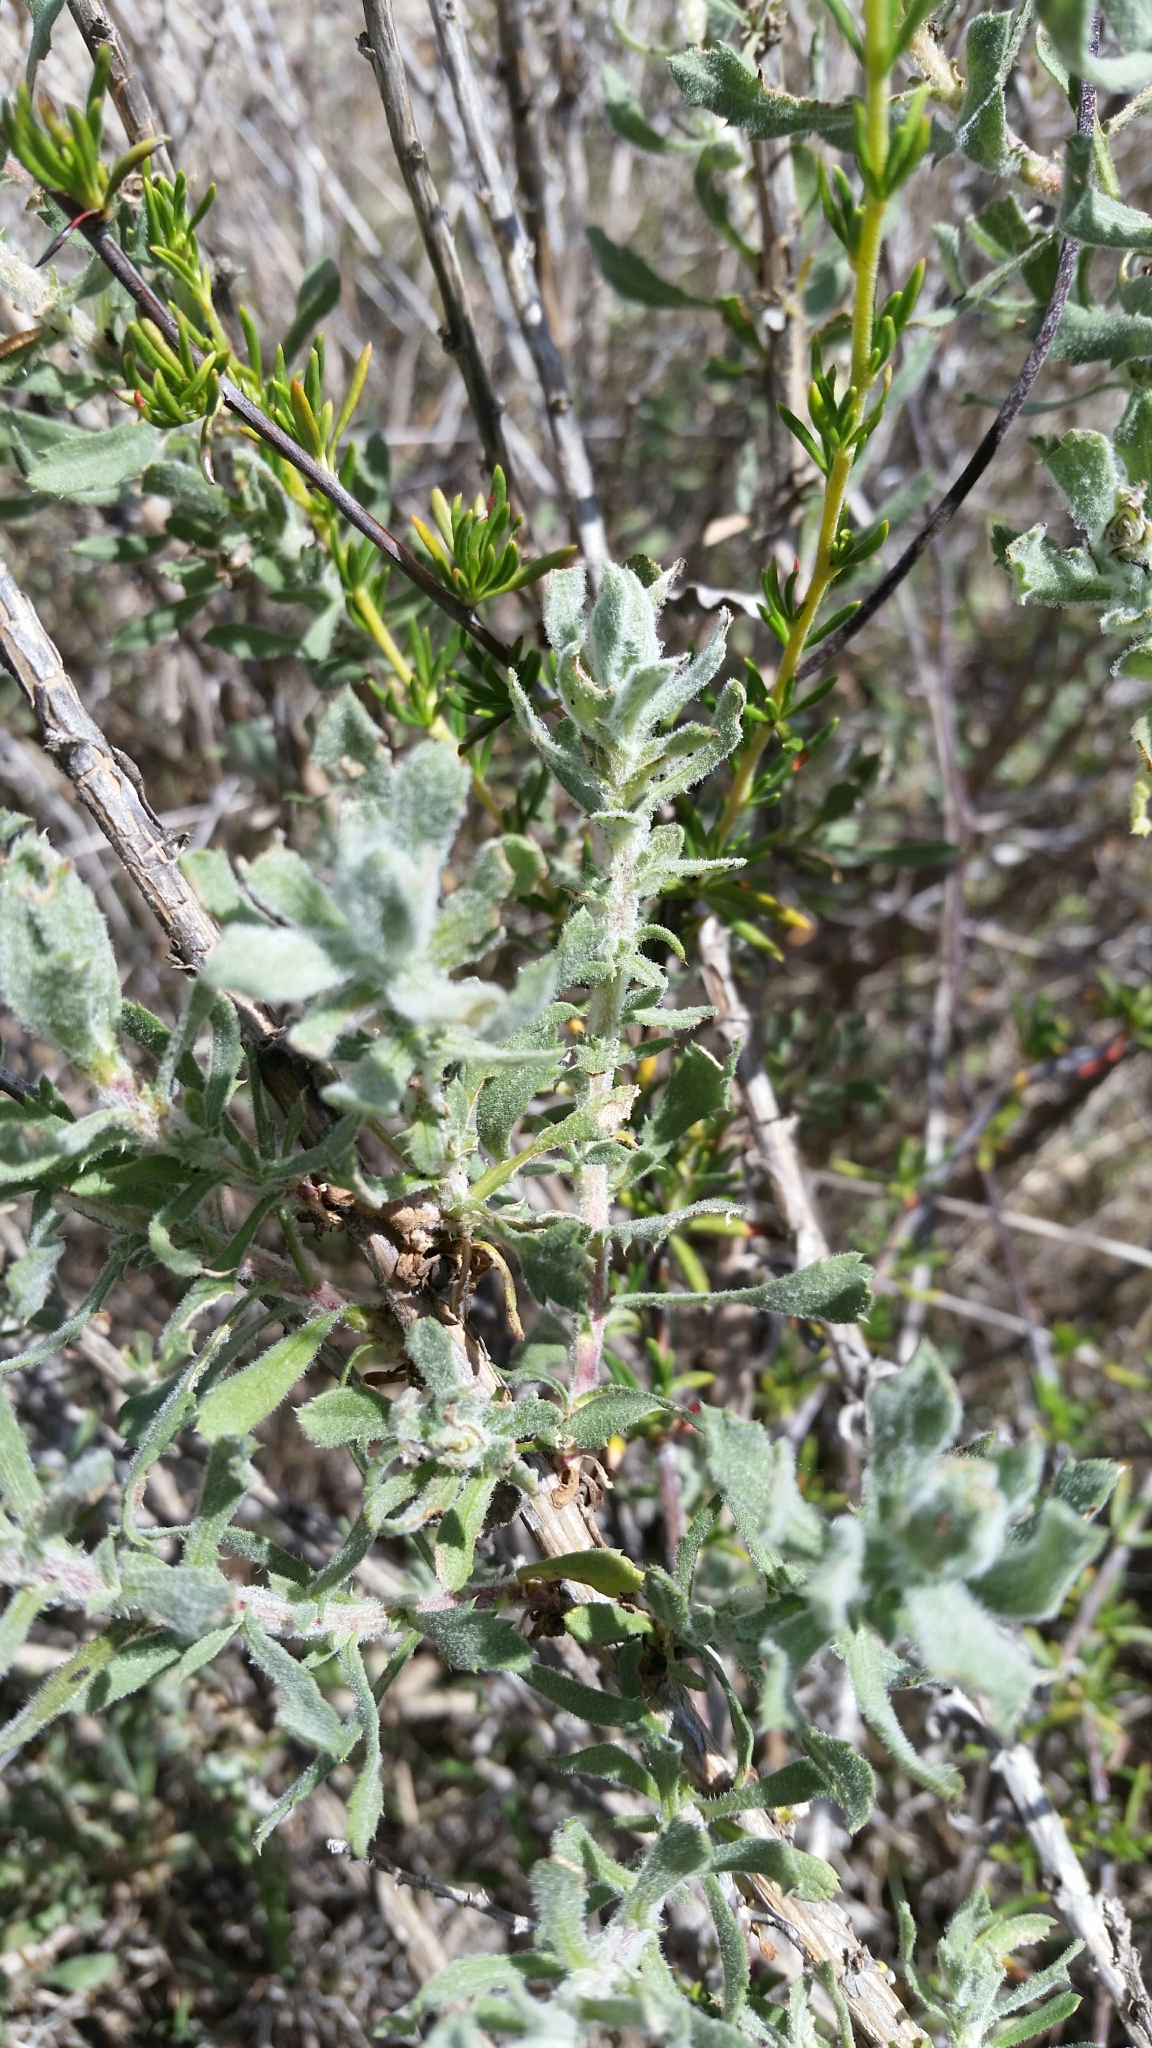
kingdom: Plantae
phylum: Tracheophyta
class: Magnoliopsida
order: Asterales
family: Asteraceae
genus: Isocoma
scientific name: Isocoma menziesii
